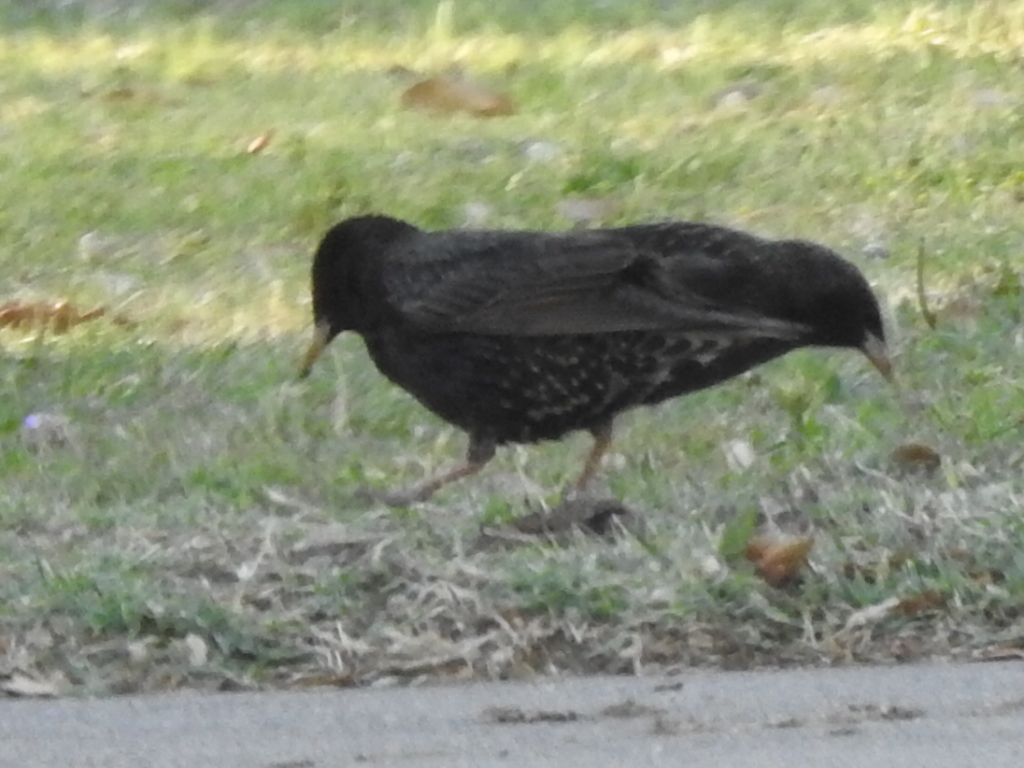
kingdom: Animalia
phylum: Chordata
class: Aves
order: Passeriformes
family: Sturnidae
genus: Sturnus
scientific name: Sturnus vulgaris
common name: Common starling
